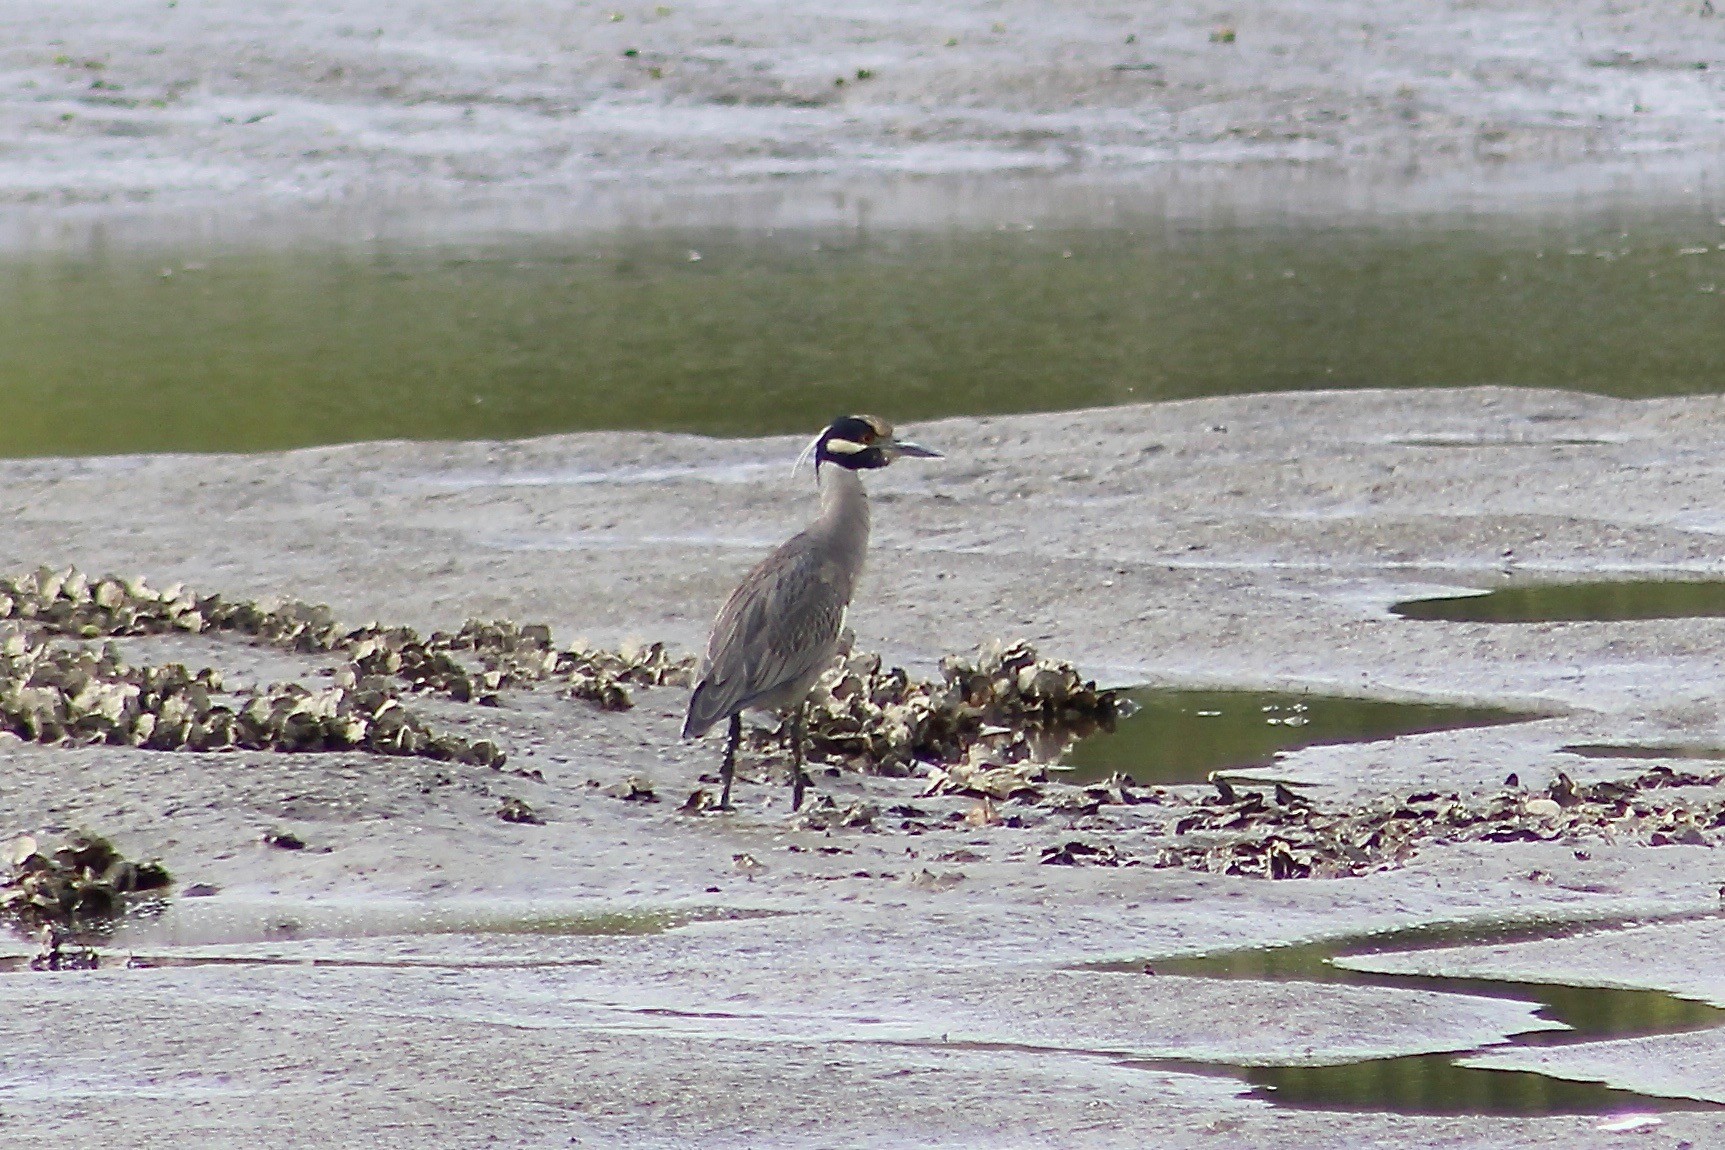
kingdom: Animalia
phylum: Chordata
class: Aves
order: Pelecaniformes
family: Ardeidae
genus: Nyctanassa
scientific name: Nyctanassa violacea
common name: Yellow-crowned night heron
